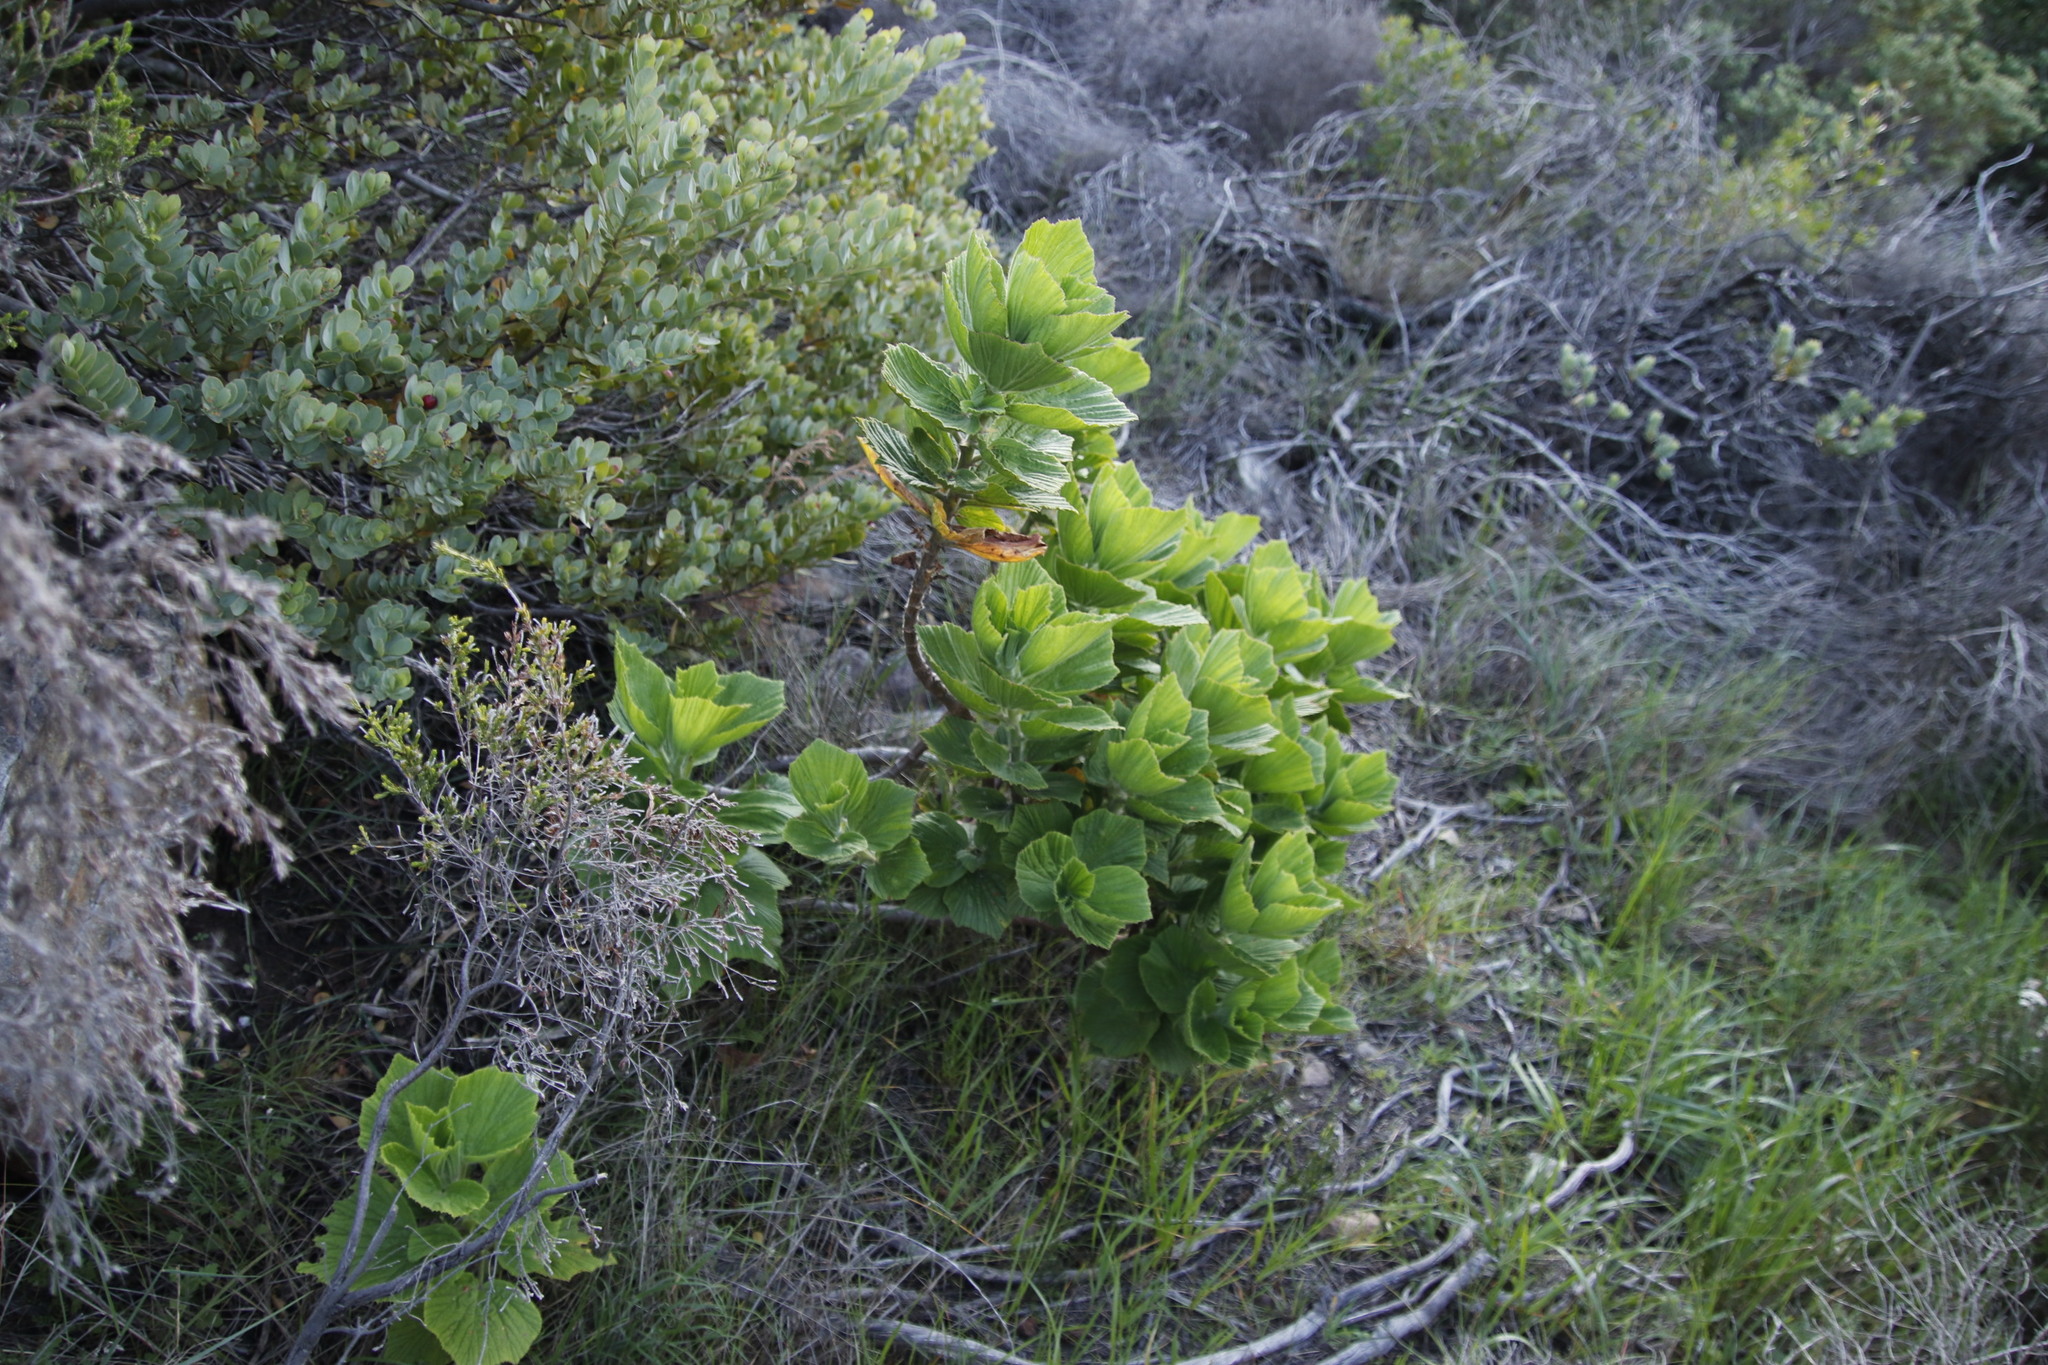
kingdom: Plantae
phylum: Tracheophyta
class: Magnoliopsida
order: Geraniales
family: Geraniaceae
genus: Pelargonium
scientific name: Pelargonium cucullatum
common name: Tree pelargonium
